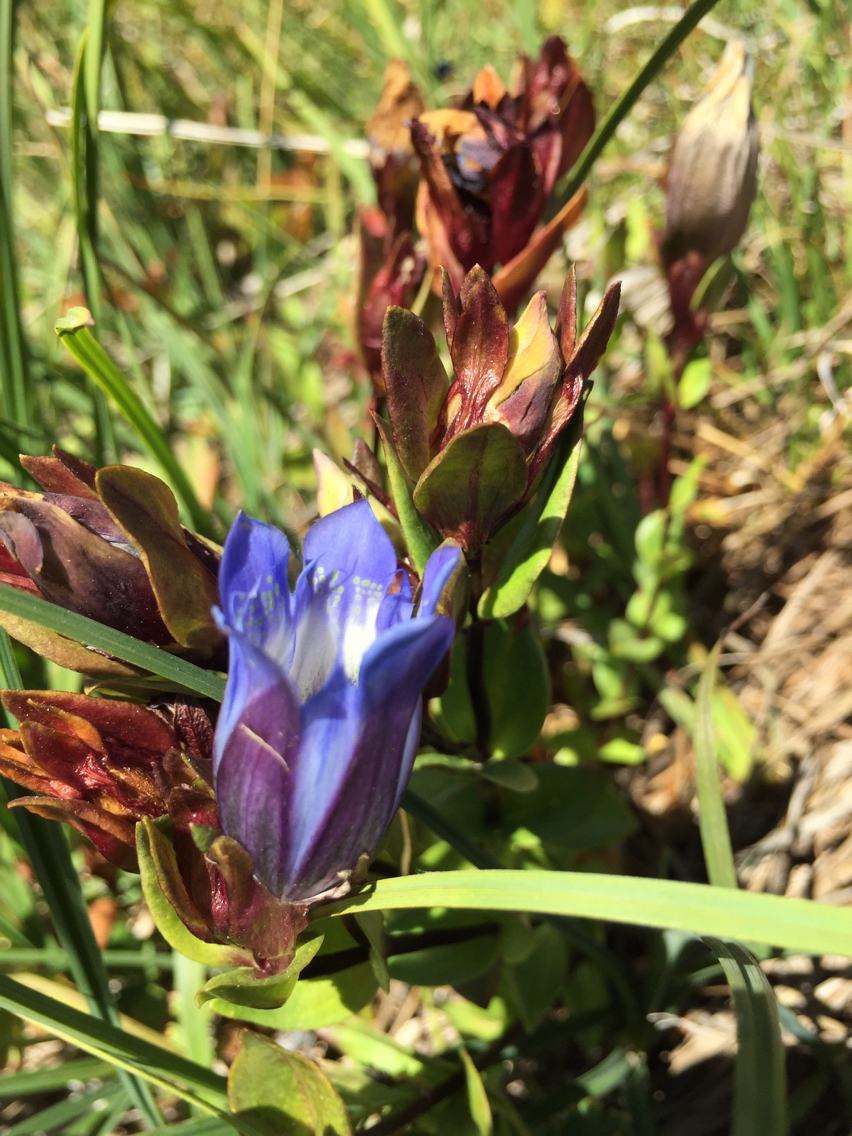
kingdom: Plantae
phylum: Tracheophyta
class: Magnoliopsida
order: Gentianales
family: Gentianaceae
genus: Gentiana
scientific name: Gentiana calycosa
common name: Rainier pleated gentian
